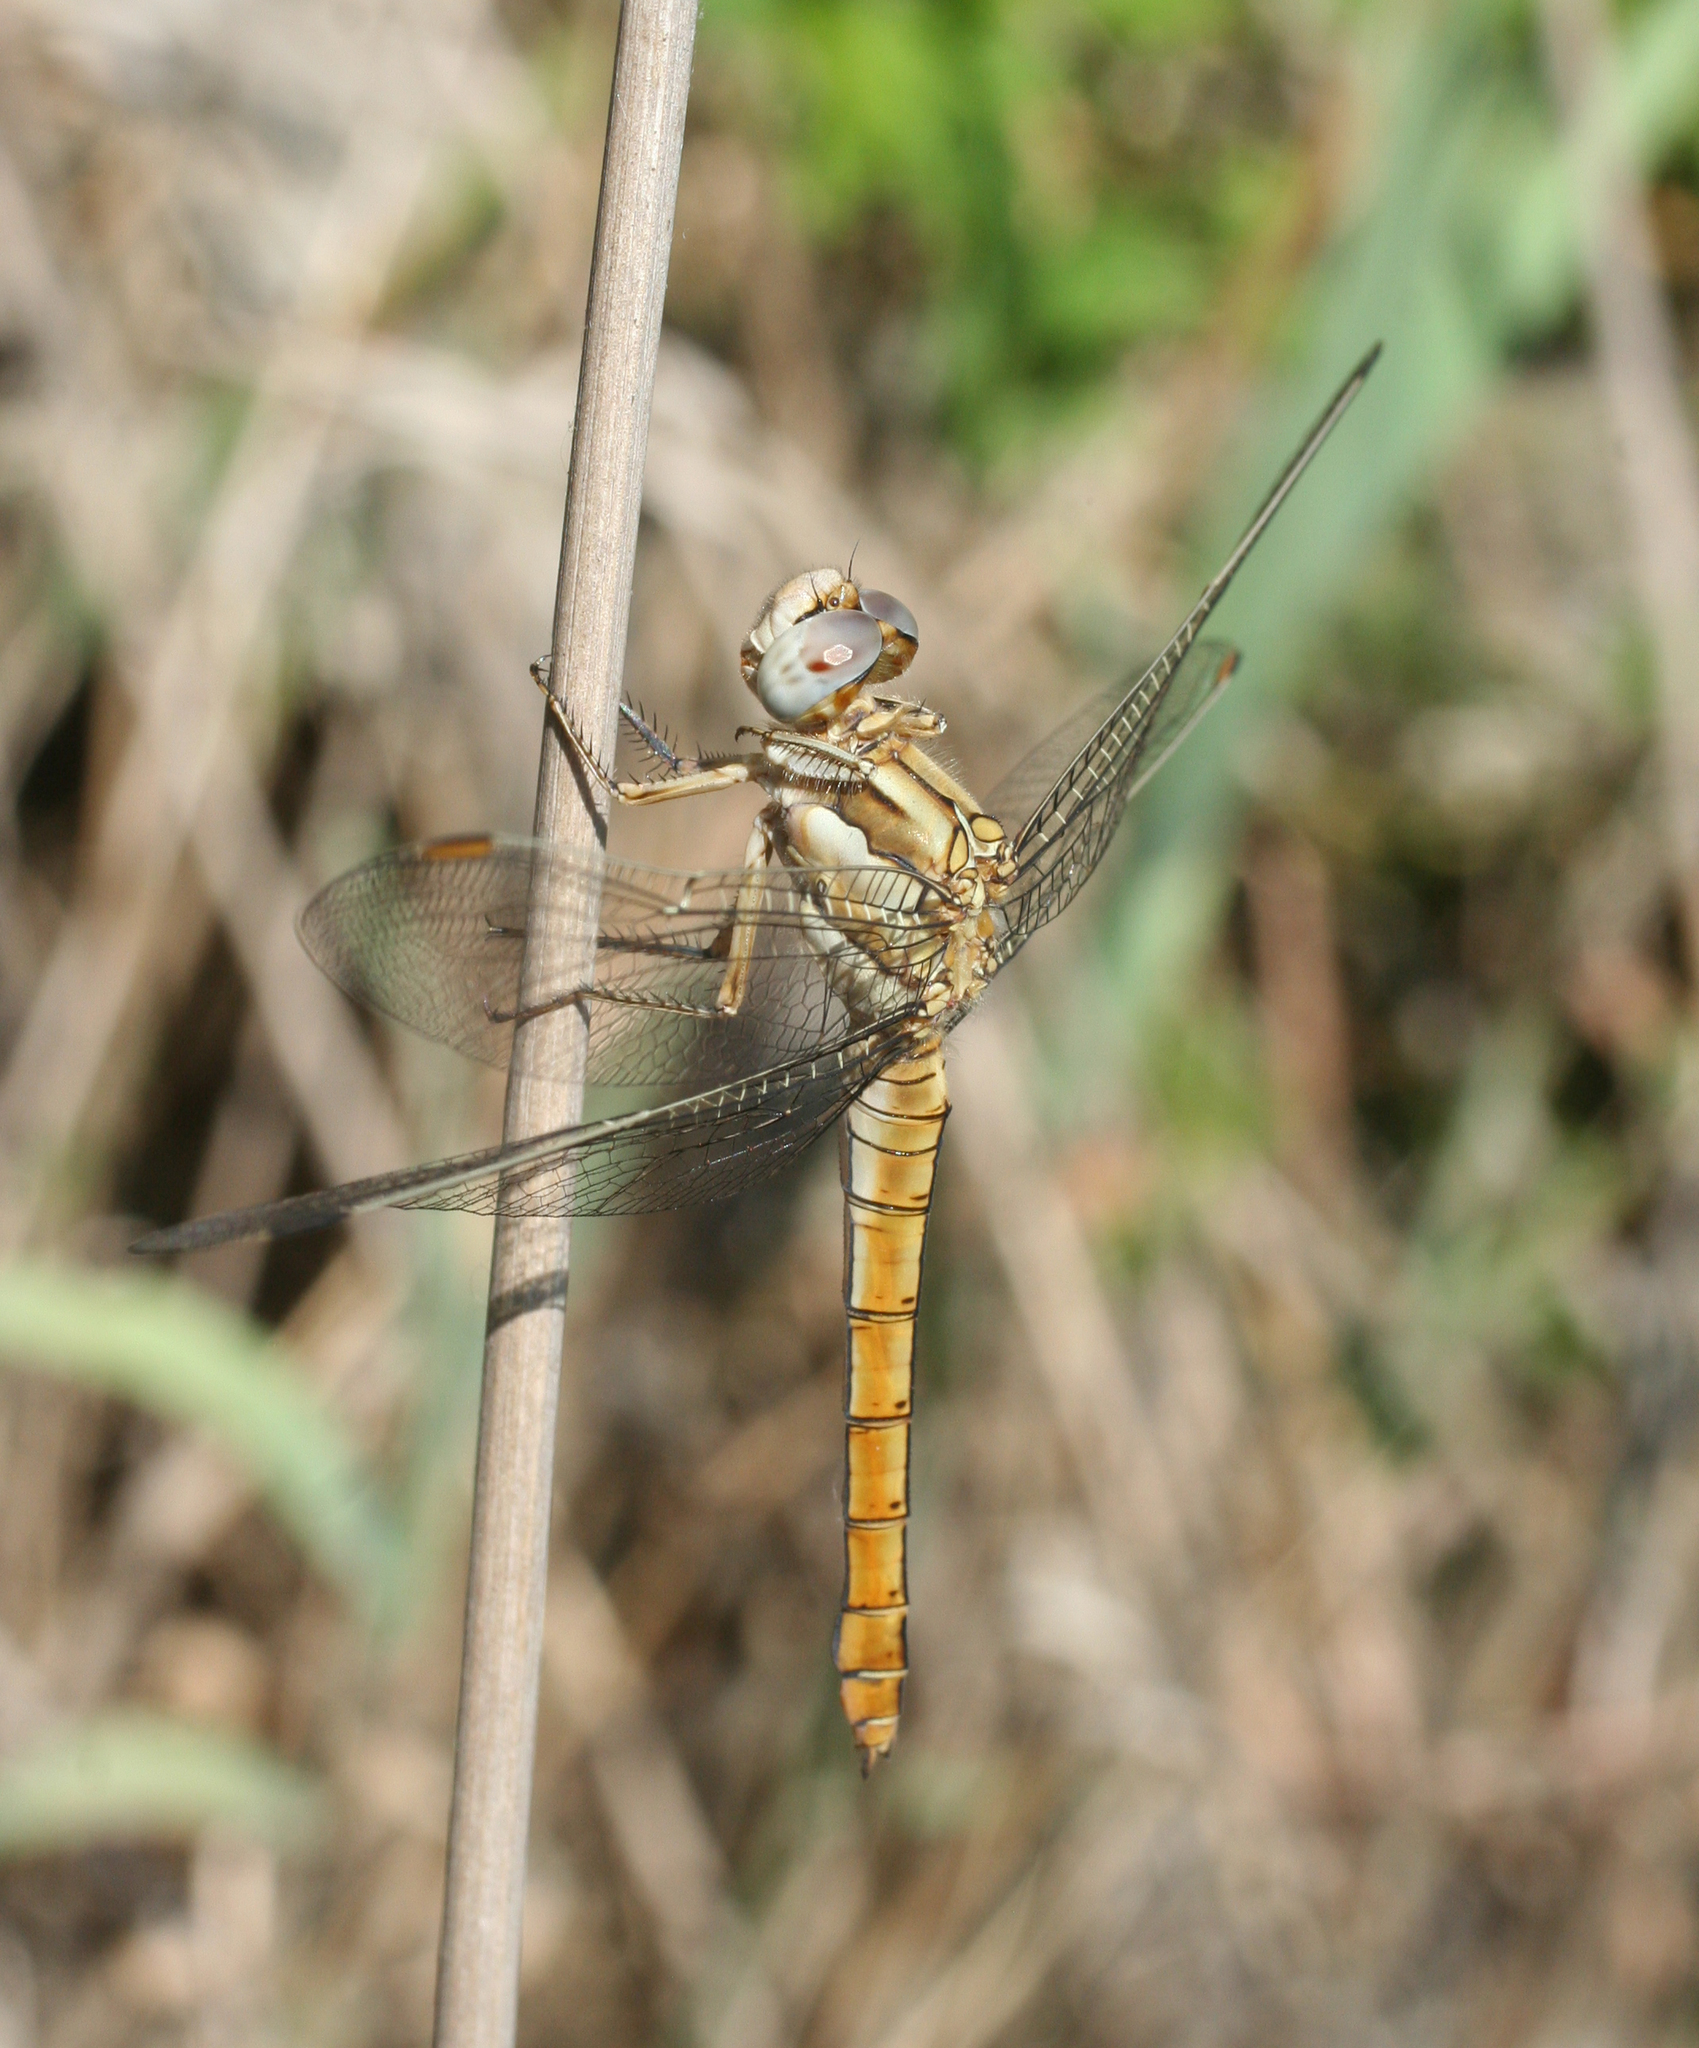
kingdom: Animalia
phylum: Arthropoda
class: Insecta
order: Odonata
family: Libellulidae
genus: Orthetrum
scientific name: Orthetrum brunneum
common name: Southern skimmer
